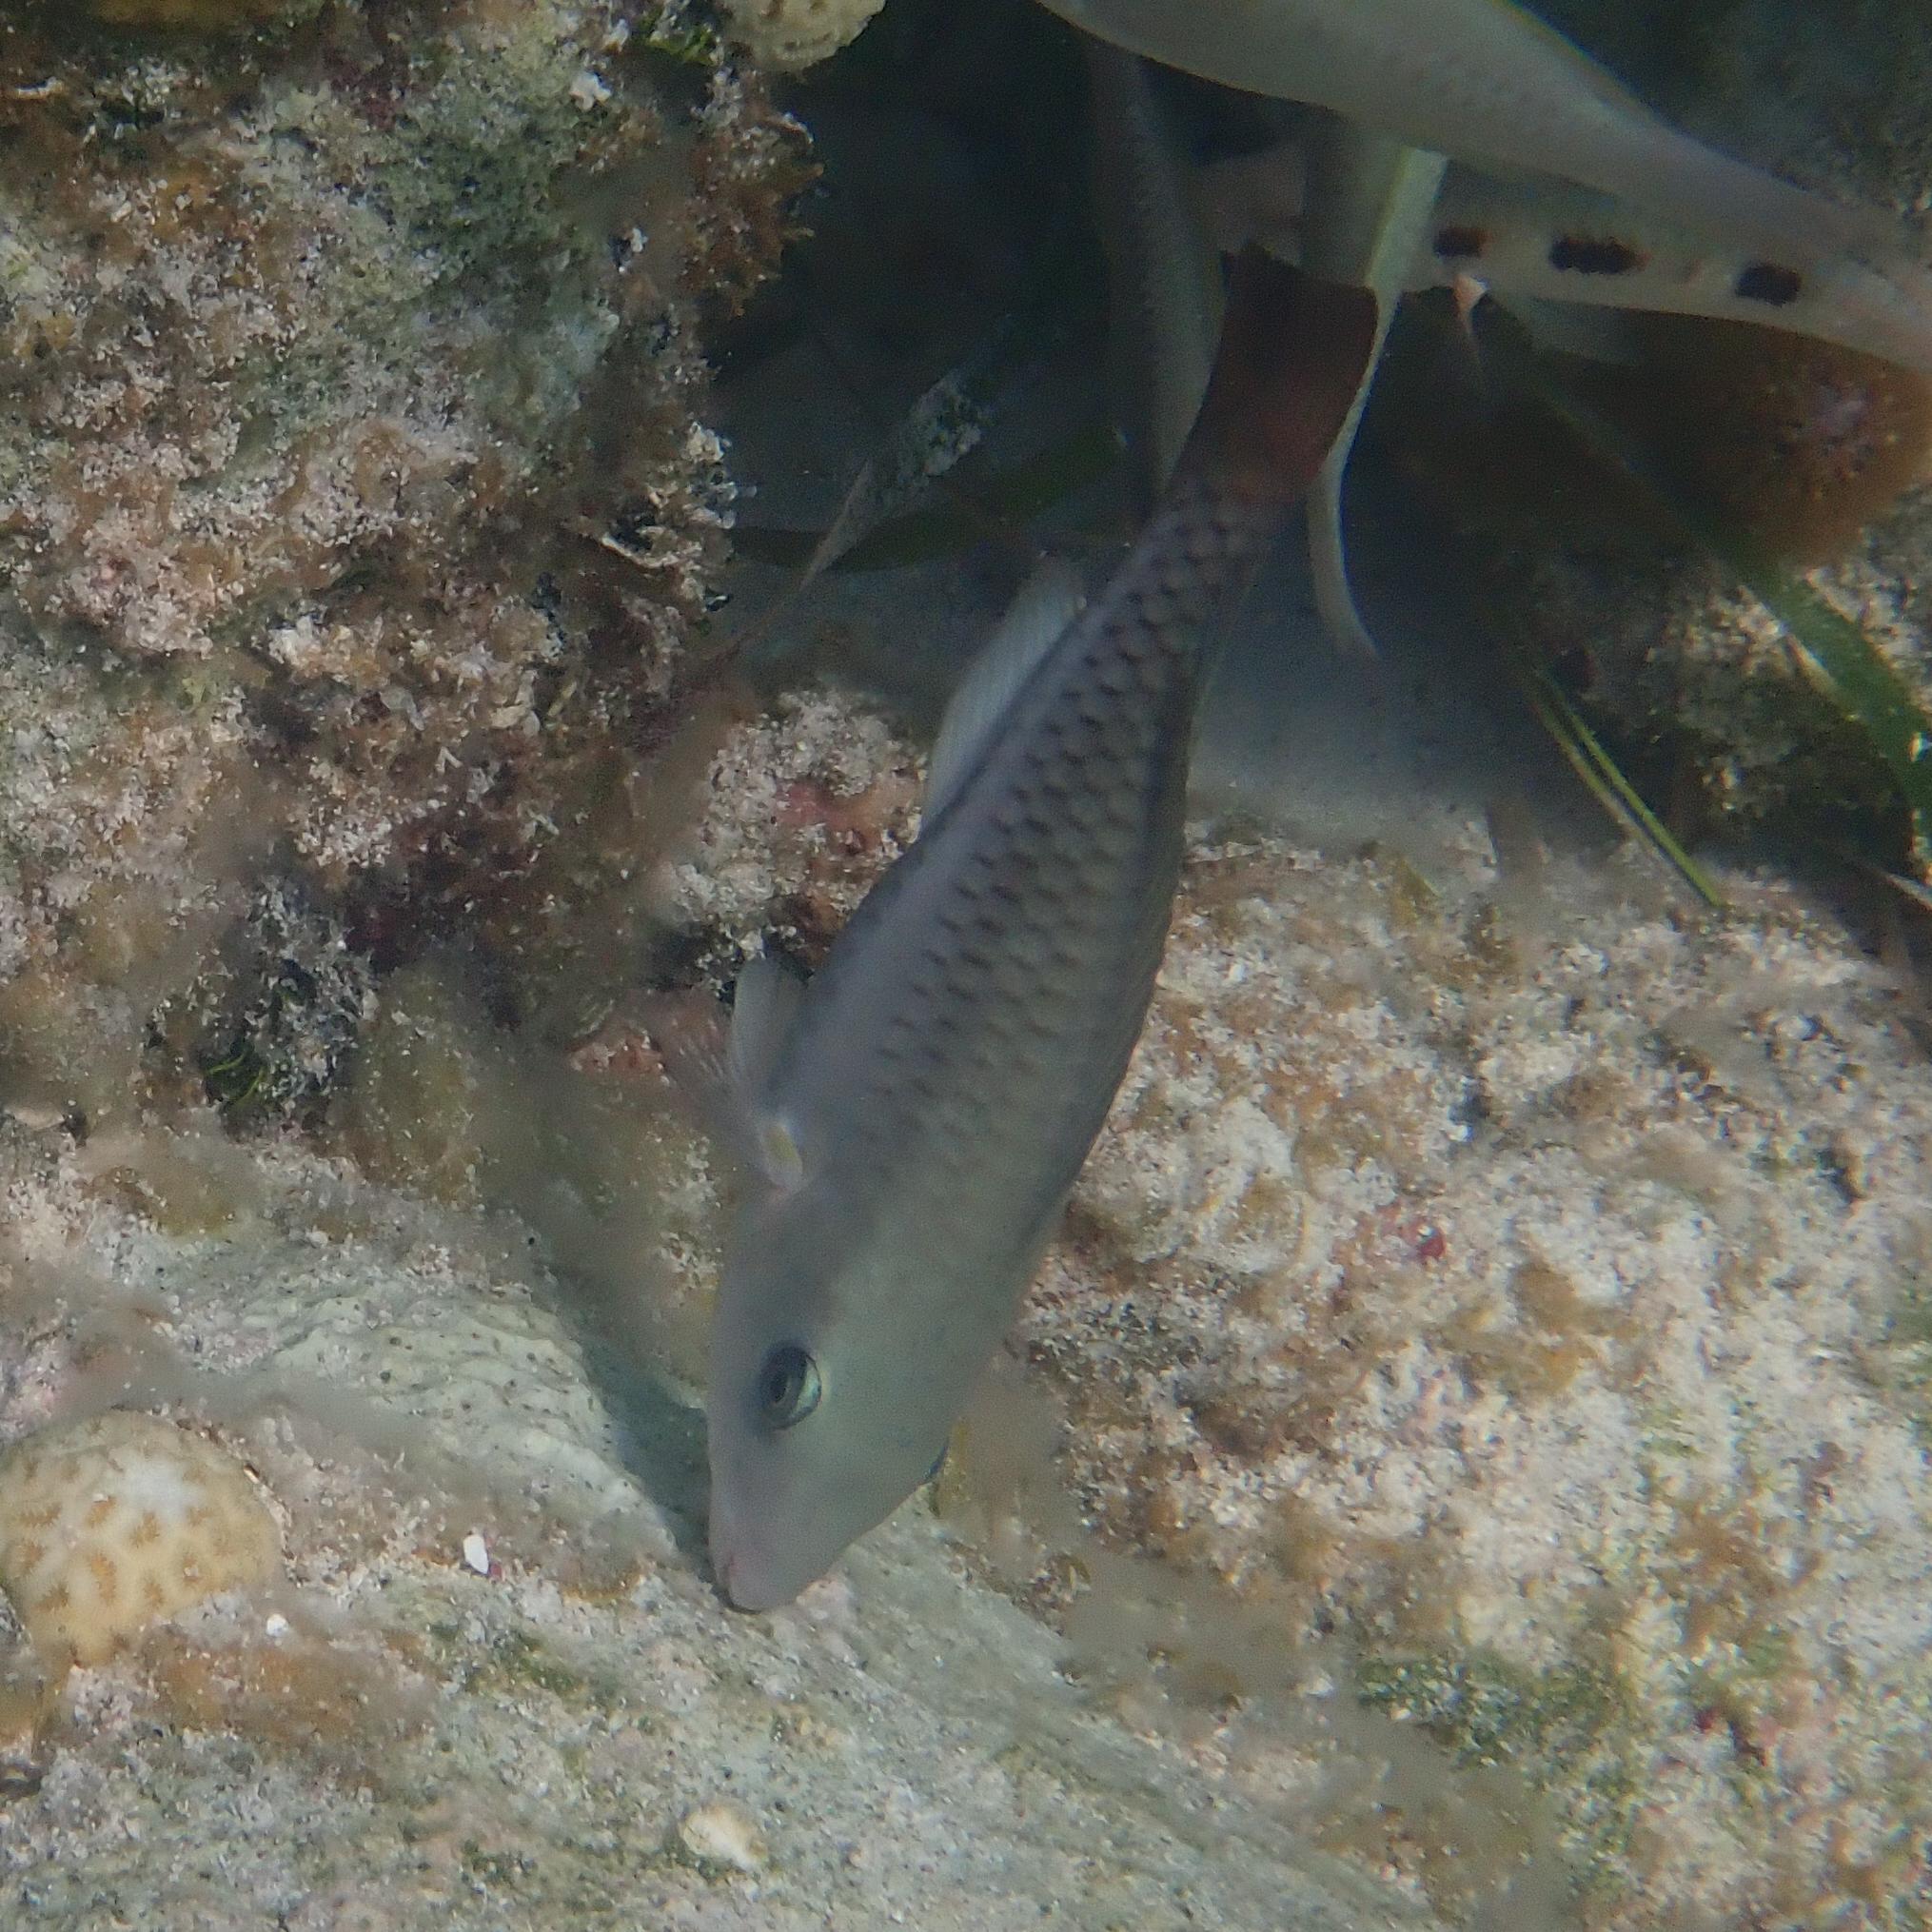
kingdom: Animalia
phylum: Chordata
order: Perciformes
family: Scaridae
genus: Scarus
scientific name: Scarus vetula
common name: Queen parrotfish
